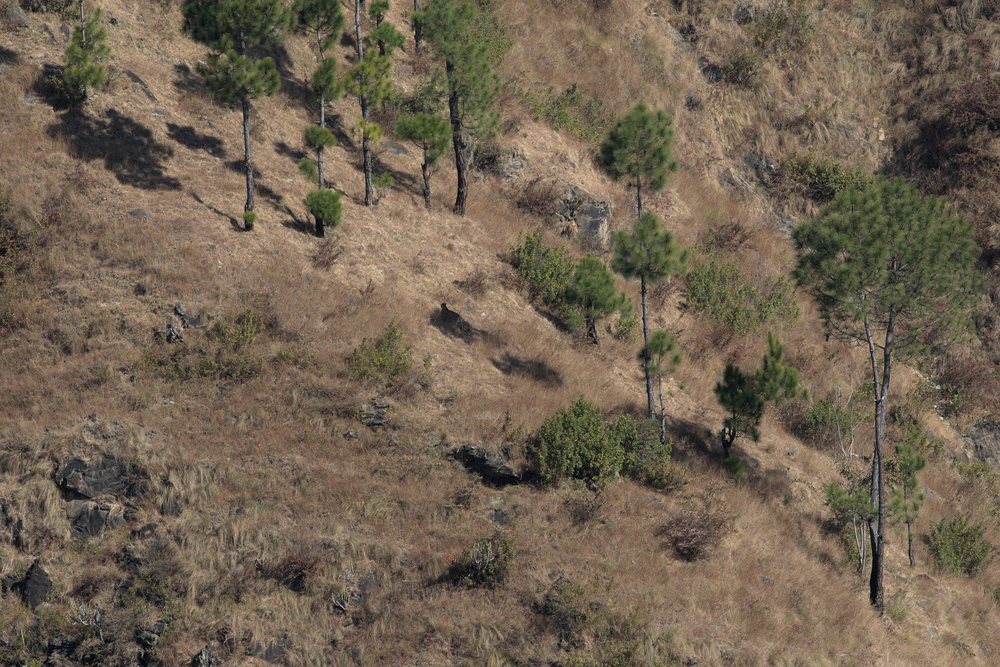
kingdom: Animalia
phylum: Chordata
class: Mammalia
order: Carnivora
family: Felidae
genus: Panthera
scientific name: Panthera pardus
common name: Leopard
